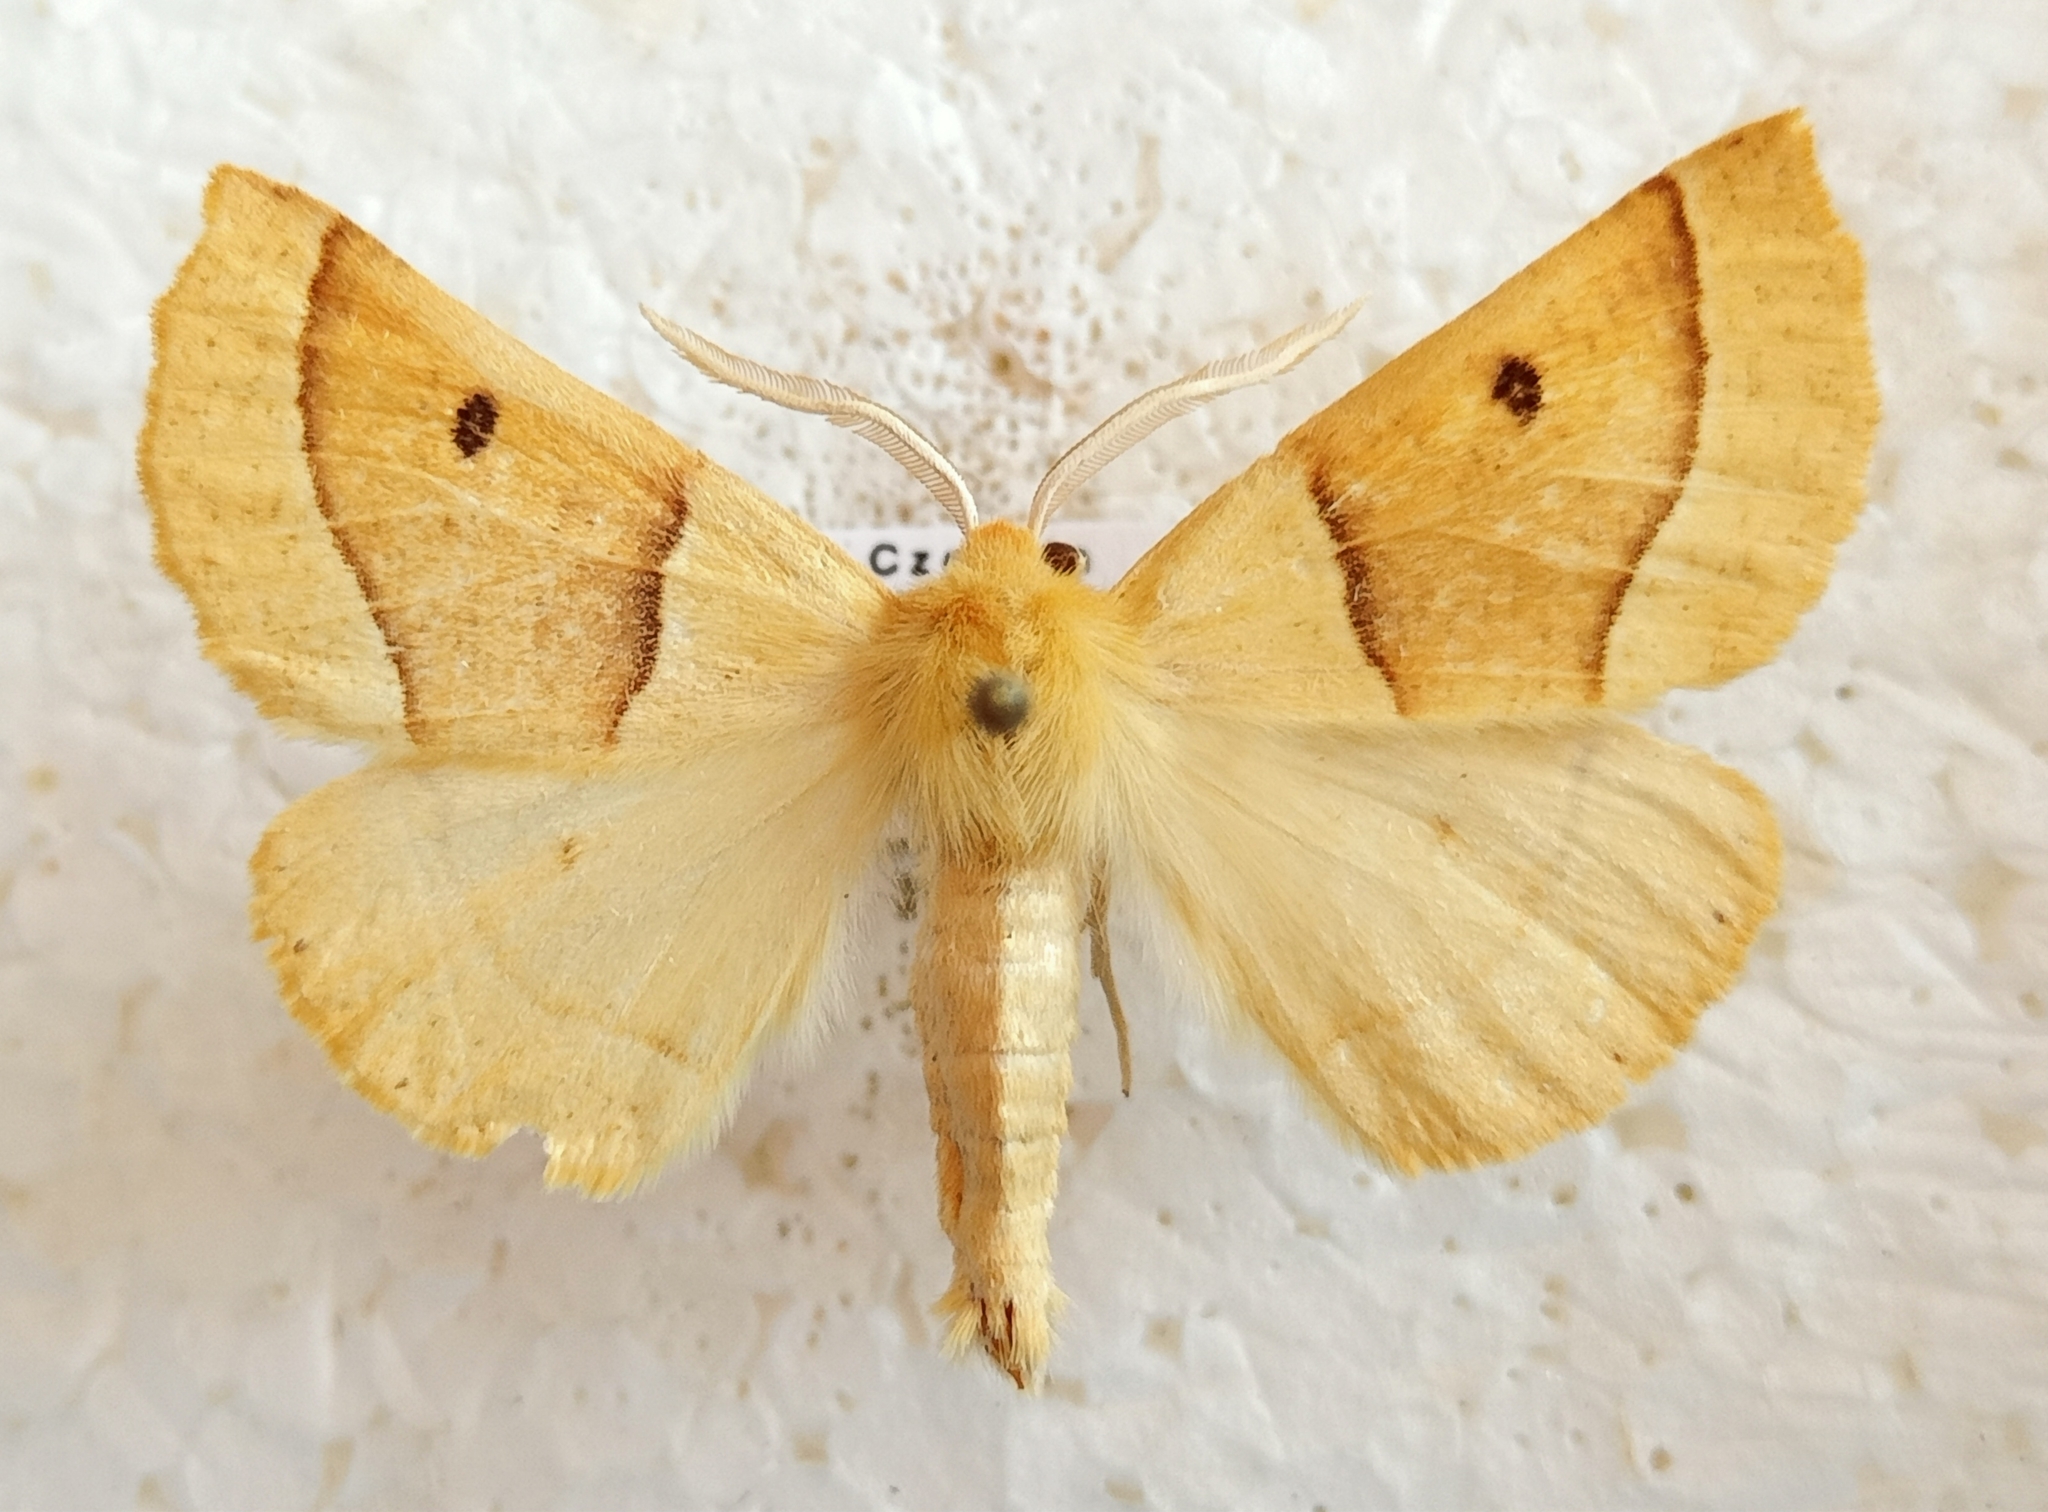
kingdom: Animalia
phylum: Arthropoda
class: Insecta
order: Lepidoptera
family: Geometridae
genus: Crocallis
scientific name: Crocallis elinguaria
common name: Scalloped oak
